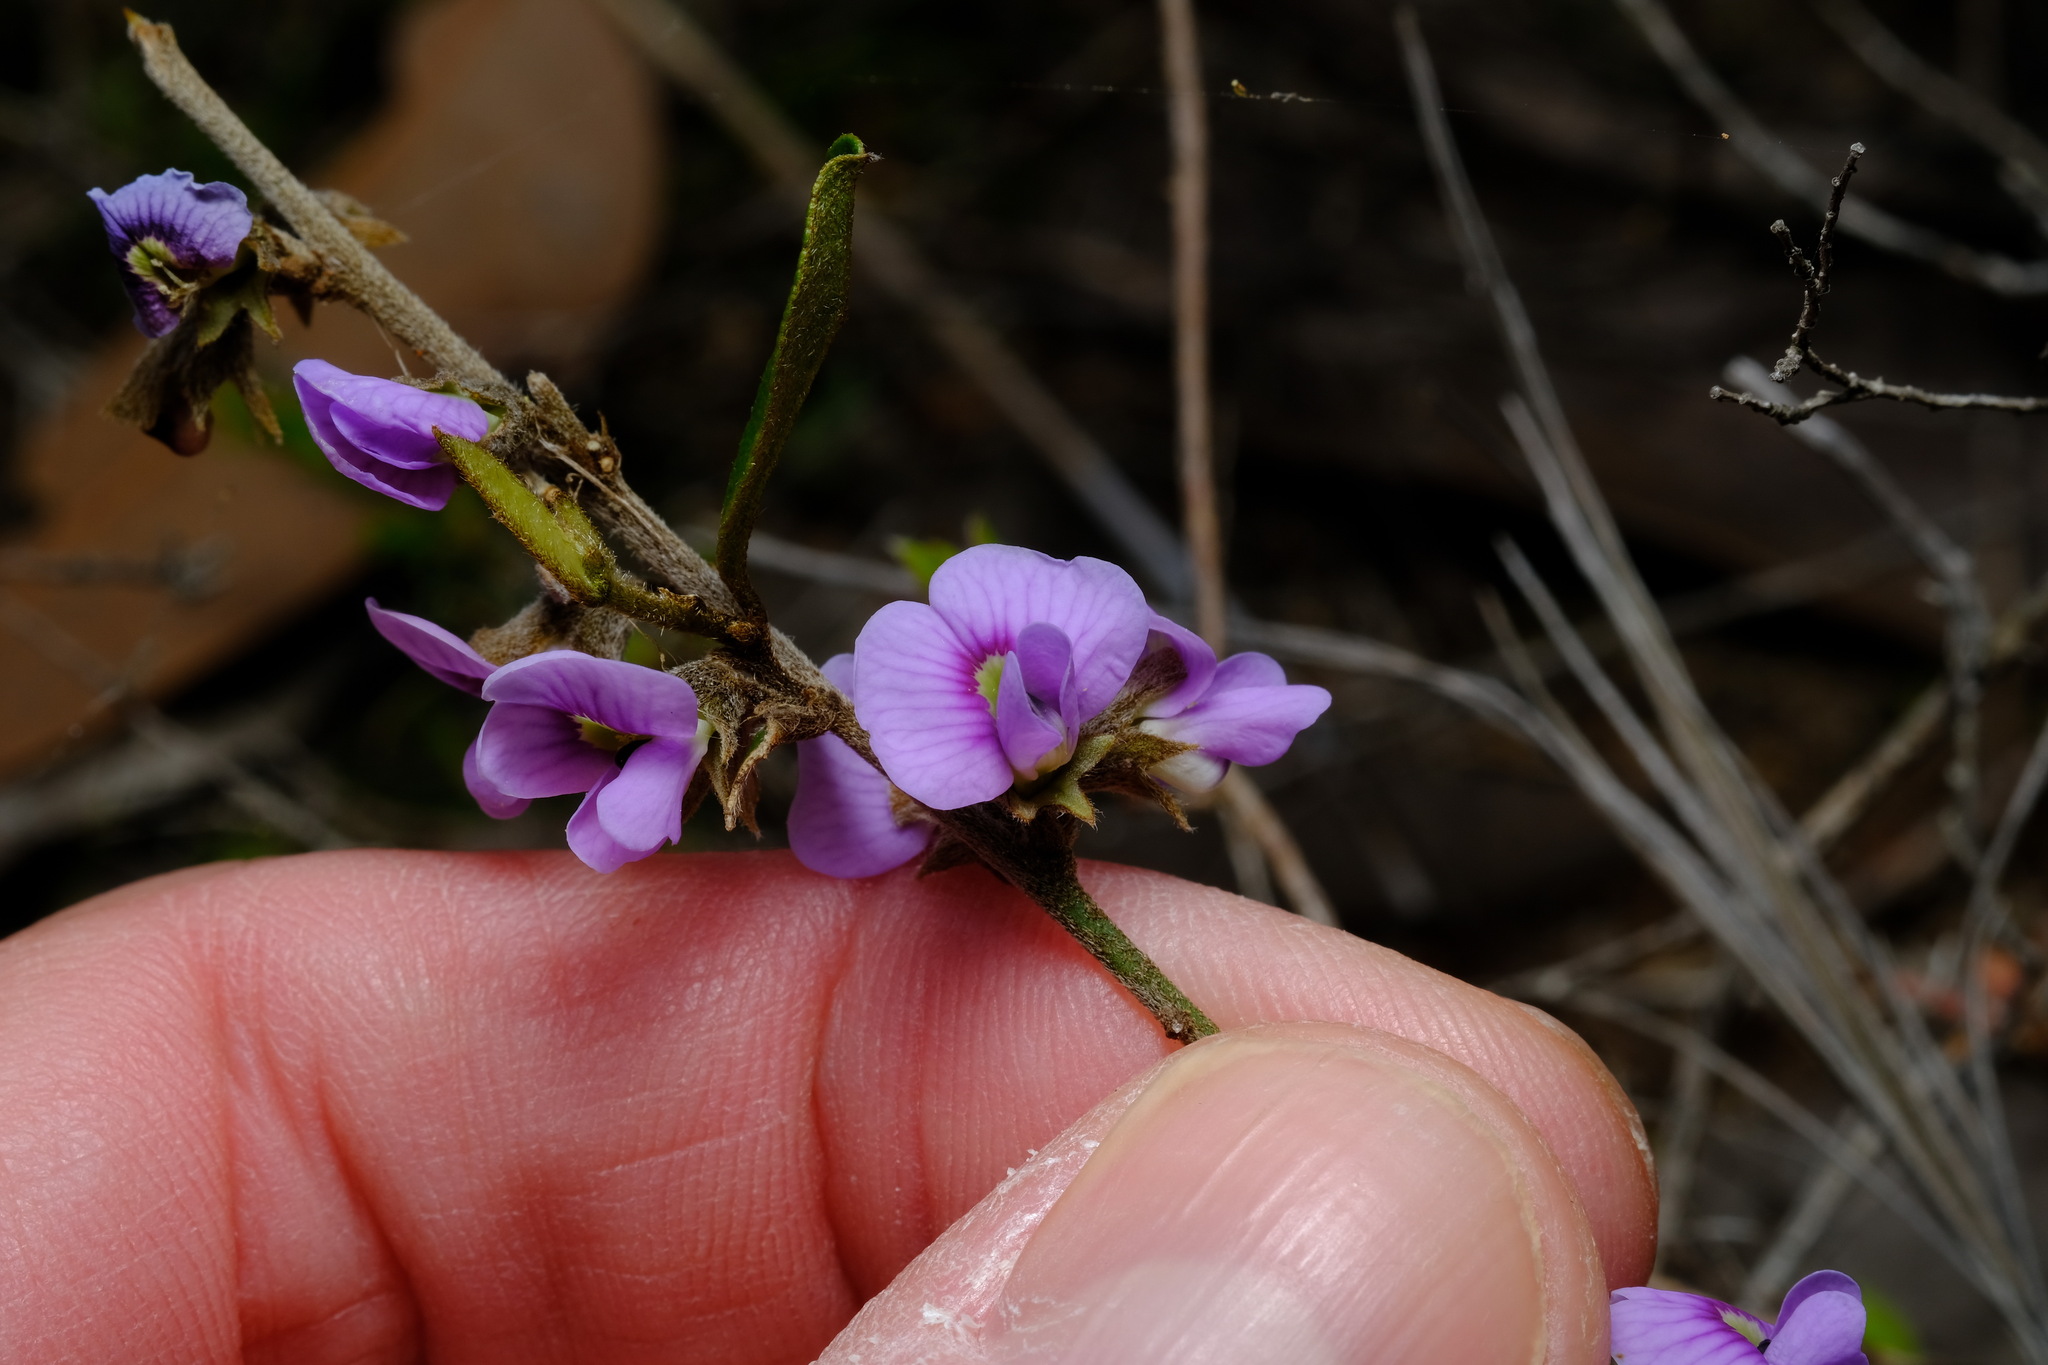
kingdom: Plantae
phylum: Tracheophyta
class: Magnoliopsida
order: Fabales
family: Fabaceae
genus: Hovea
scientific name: Hovea heterophylla
